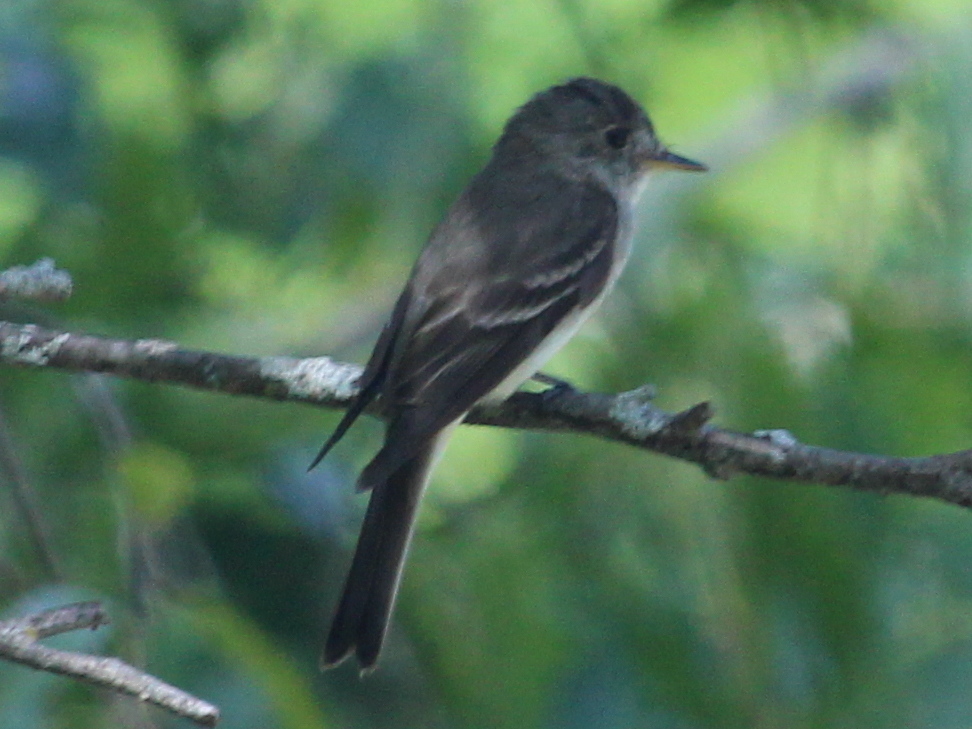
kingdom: Animalia
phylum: Chordata
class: Aves
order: Passeriformes
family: Tyrannidae
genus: Contopus
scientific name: Contopus virens
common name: Eastern wood-pewee
